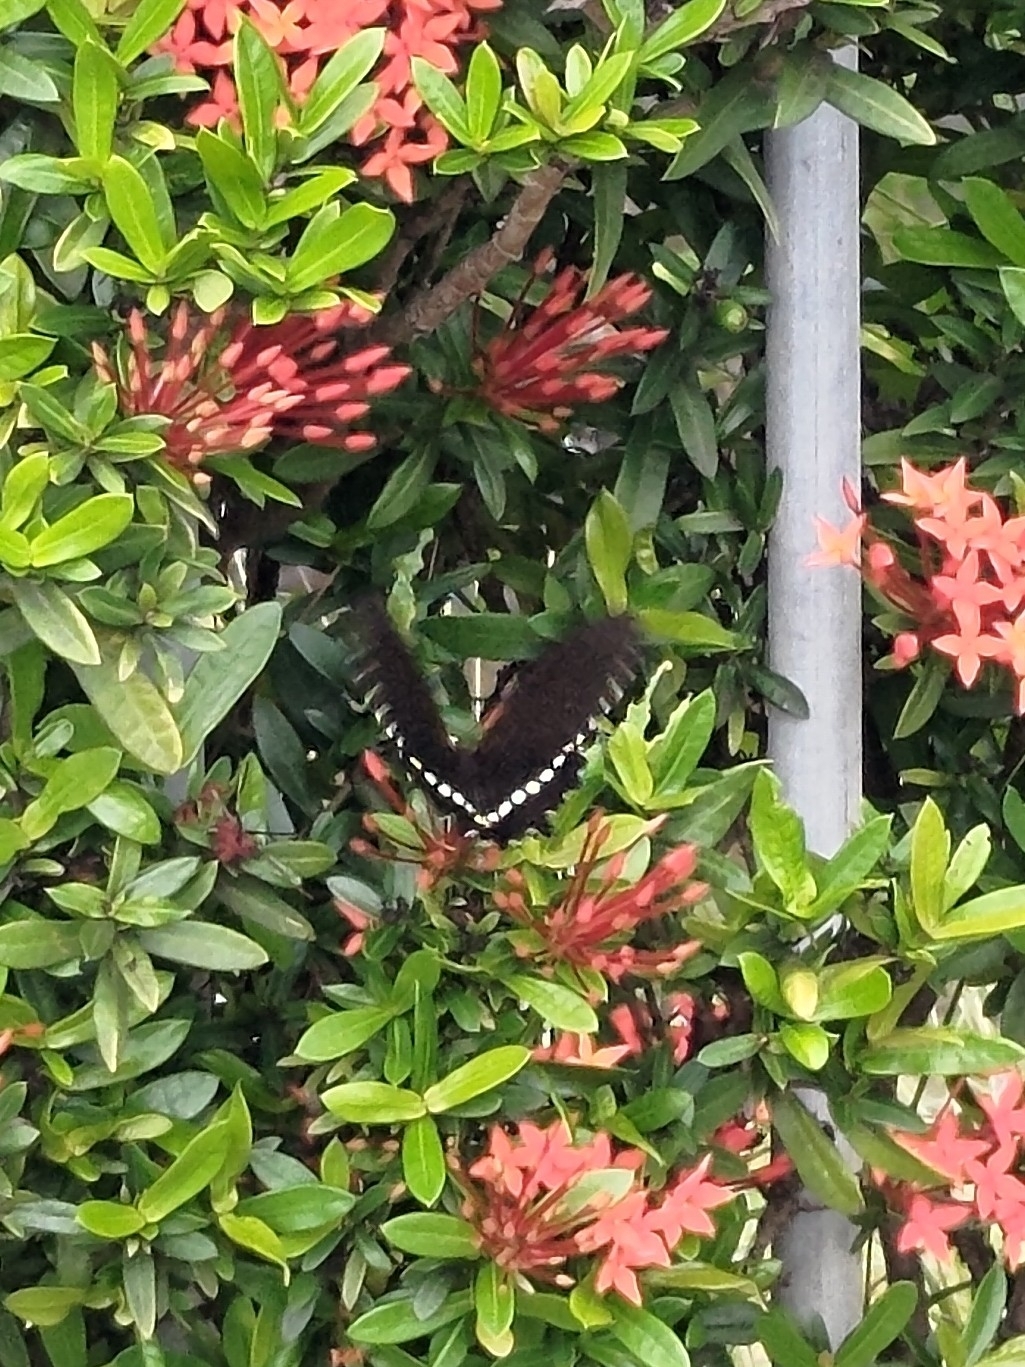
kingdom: Animalia
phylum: Arthropoda
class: Insecta
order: Lepidoptera
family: Papilionidae
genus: Papilio
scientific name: Papilio polytes
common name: Common mormon
